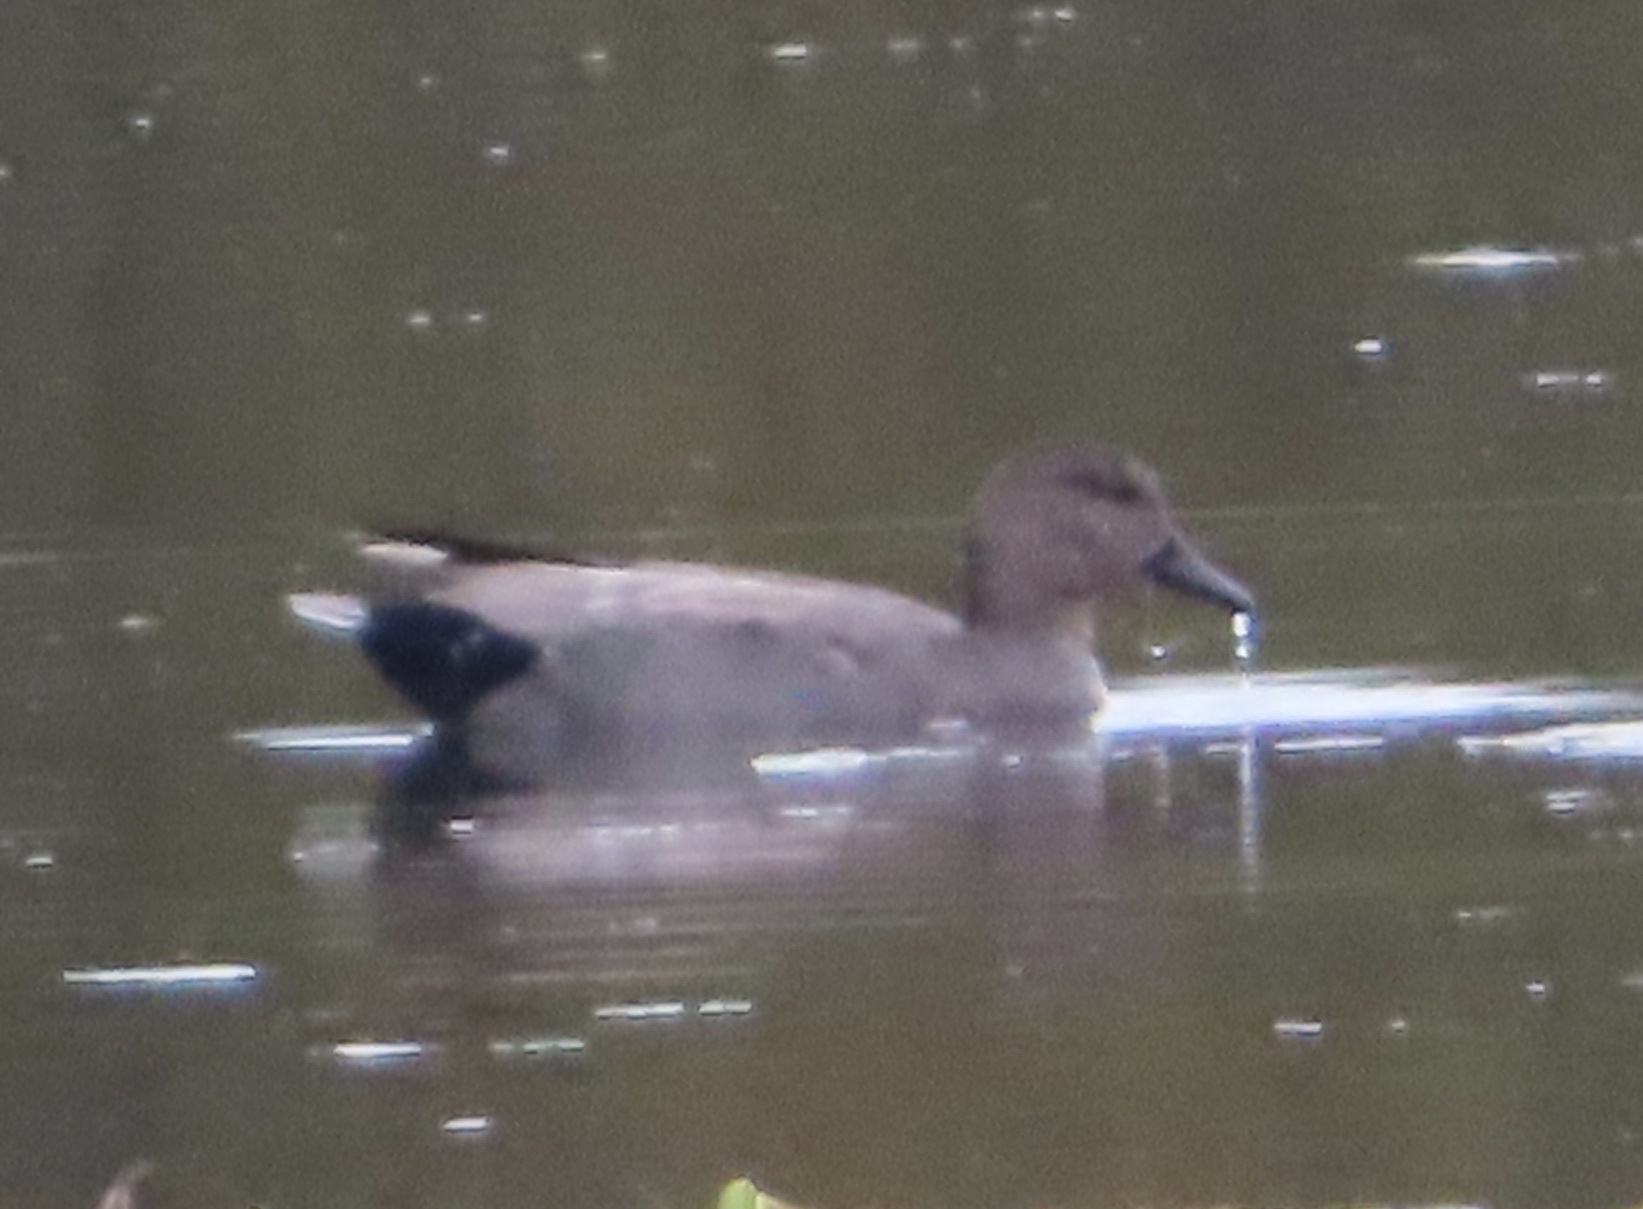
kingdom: Animalia
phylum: Chordata
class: Aves
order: Anseriformes
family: Anatidae
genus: Mareca
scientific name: Mareca strepera
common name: Gadwall
